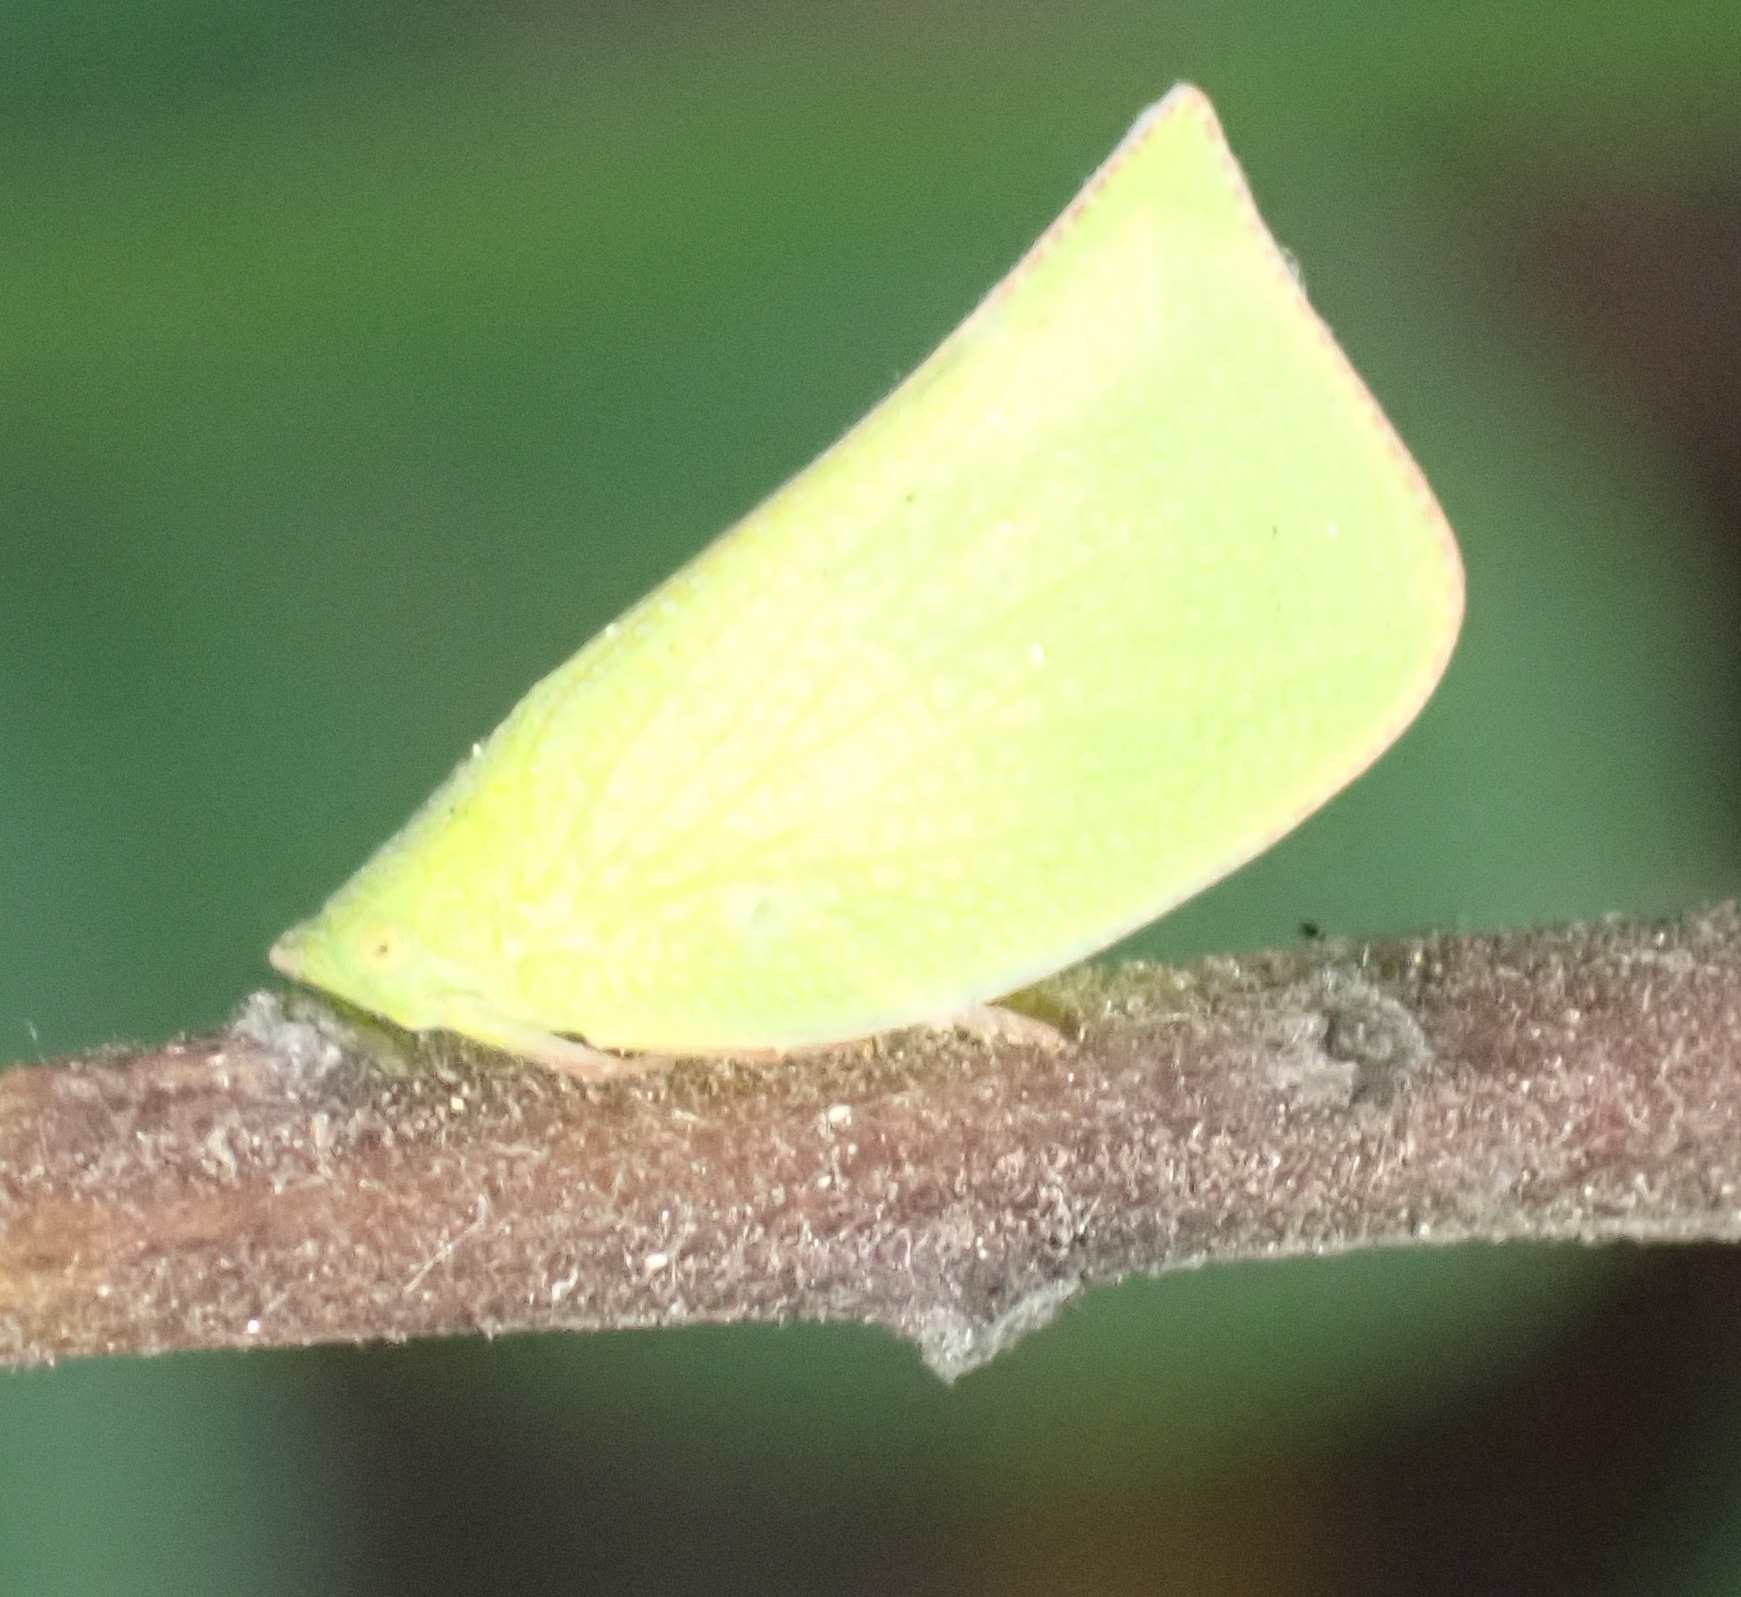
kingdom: Animalia
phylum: Arthropoda
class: Insecta
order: Hemiptera
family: Flatidae
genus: Siphanta
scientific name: Siphanta acuta
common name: Torpedo bug
